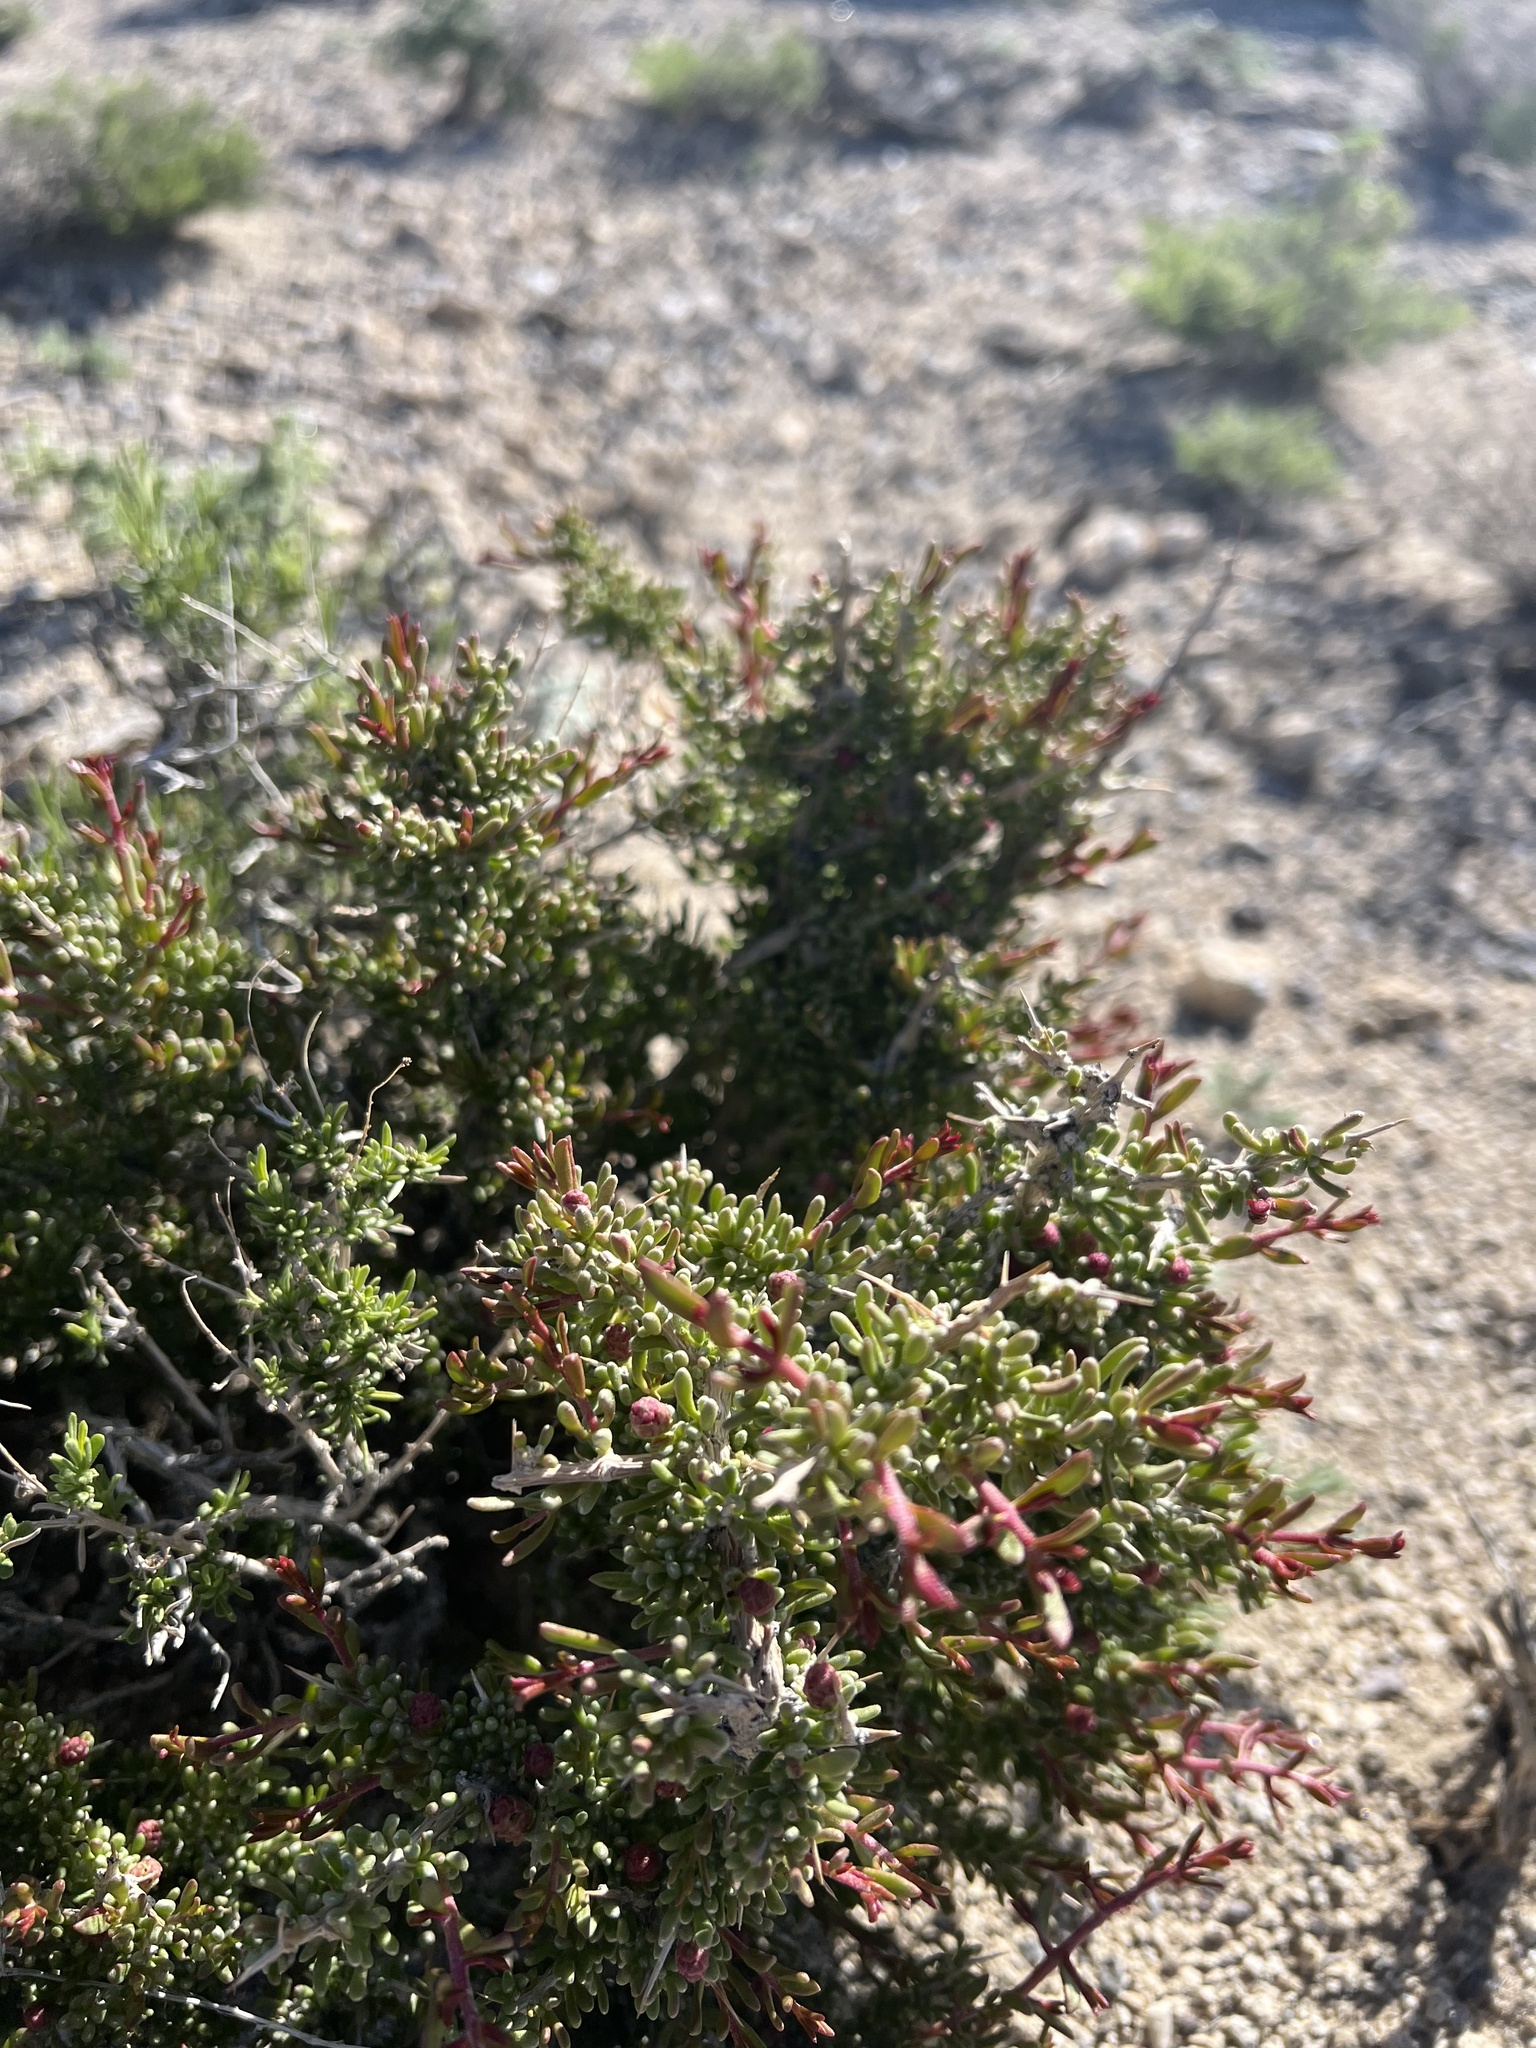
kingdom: Plantae
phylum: Tracheophyta
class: Magnoliopsida
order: Caryophyllales
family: Sarcobataceae
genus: Sarcobatus
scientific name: Sarcobatus baileyi
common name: Bailey greasewood
